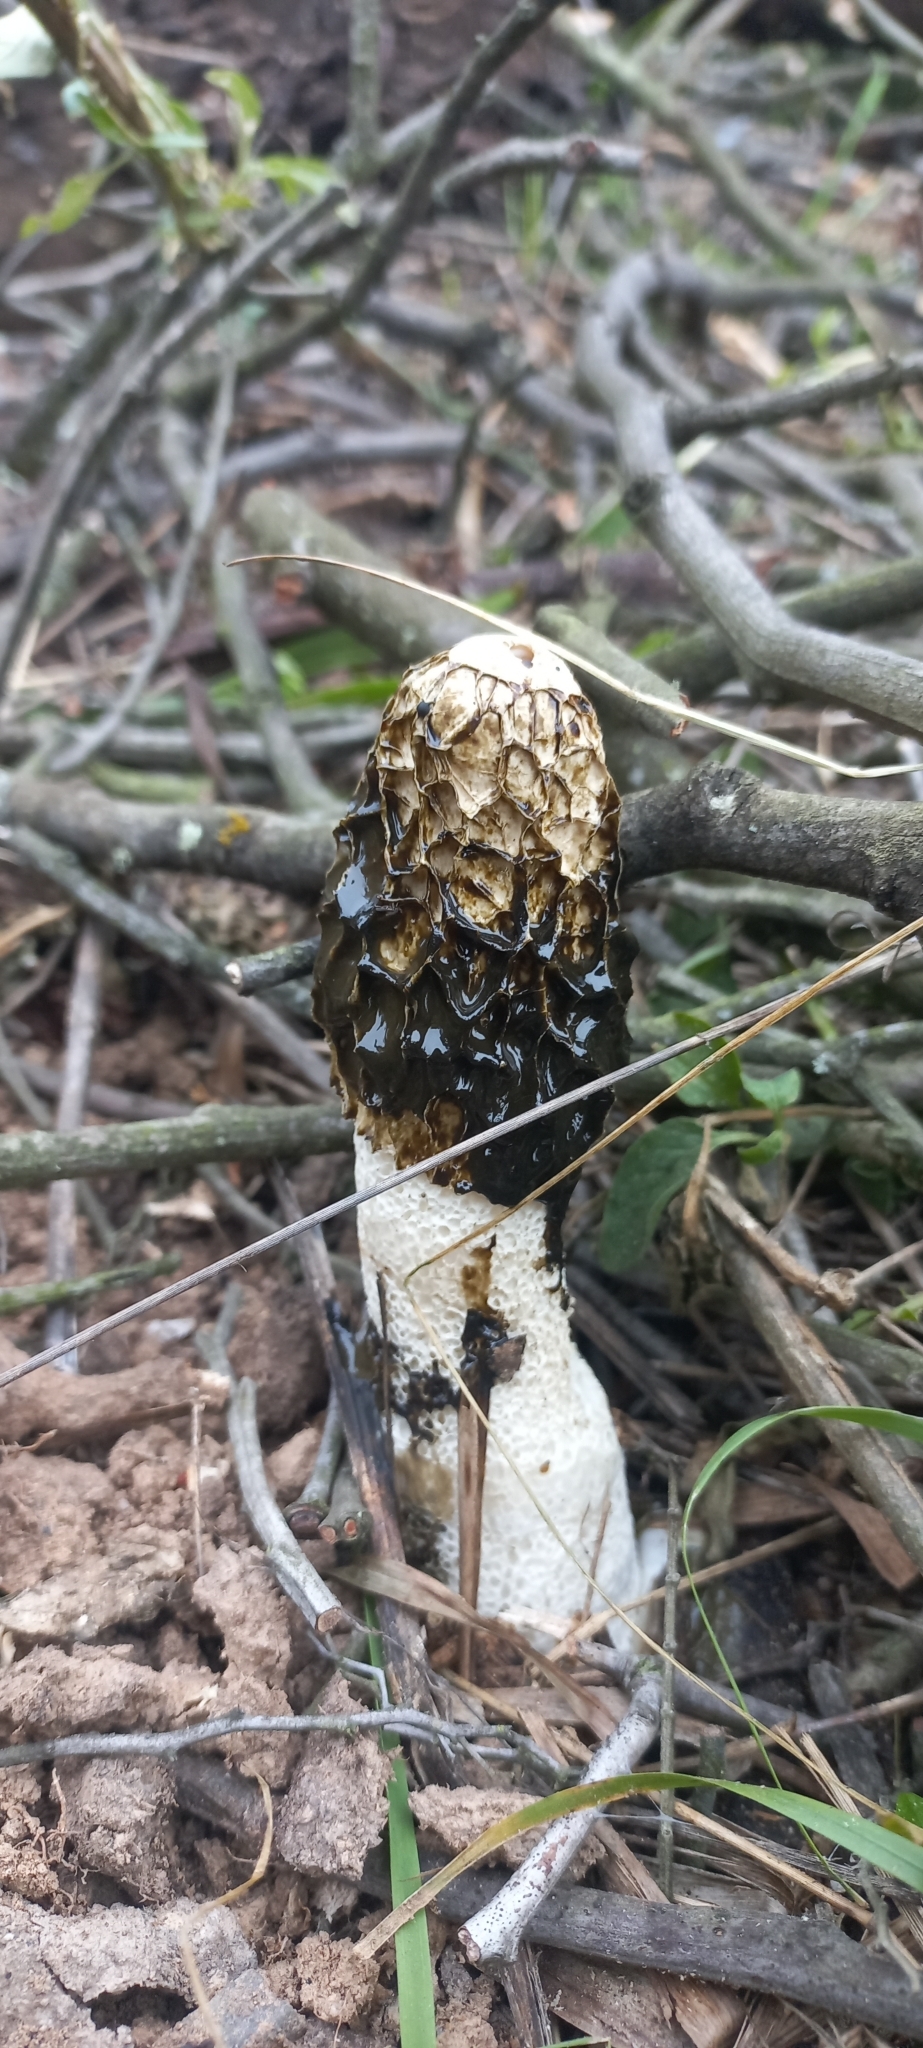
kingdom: Fungi
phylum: Basidiomycota
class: Agaricomycetes
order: Phallales
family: Phallaceae
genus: Phallus
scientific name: Phallus impudicus
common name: Common stinkhorn
